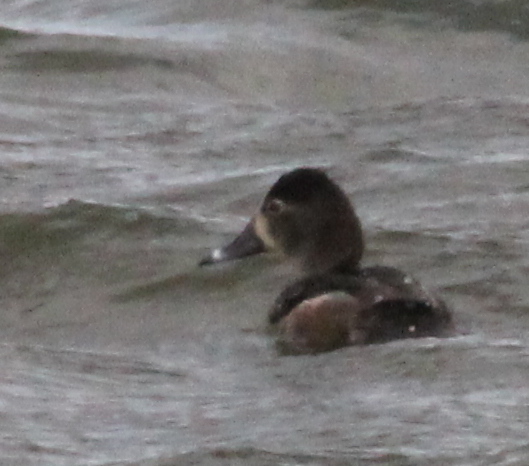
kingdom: Animalia
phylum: Chordata
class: Aves
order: Anseriformes
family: Anatidae
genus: Aythya
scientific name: Aythya collaris
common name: Ring-necked duck
